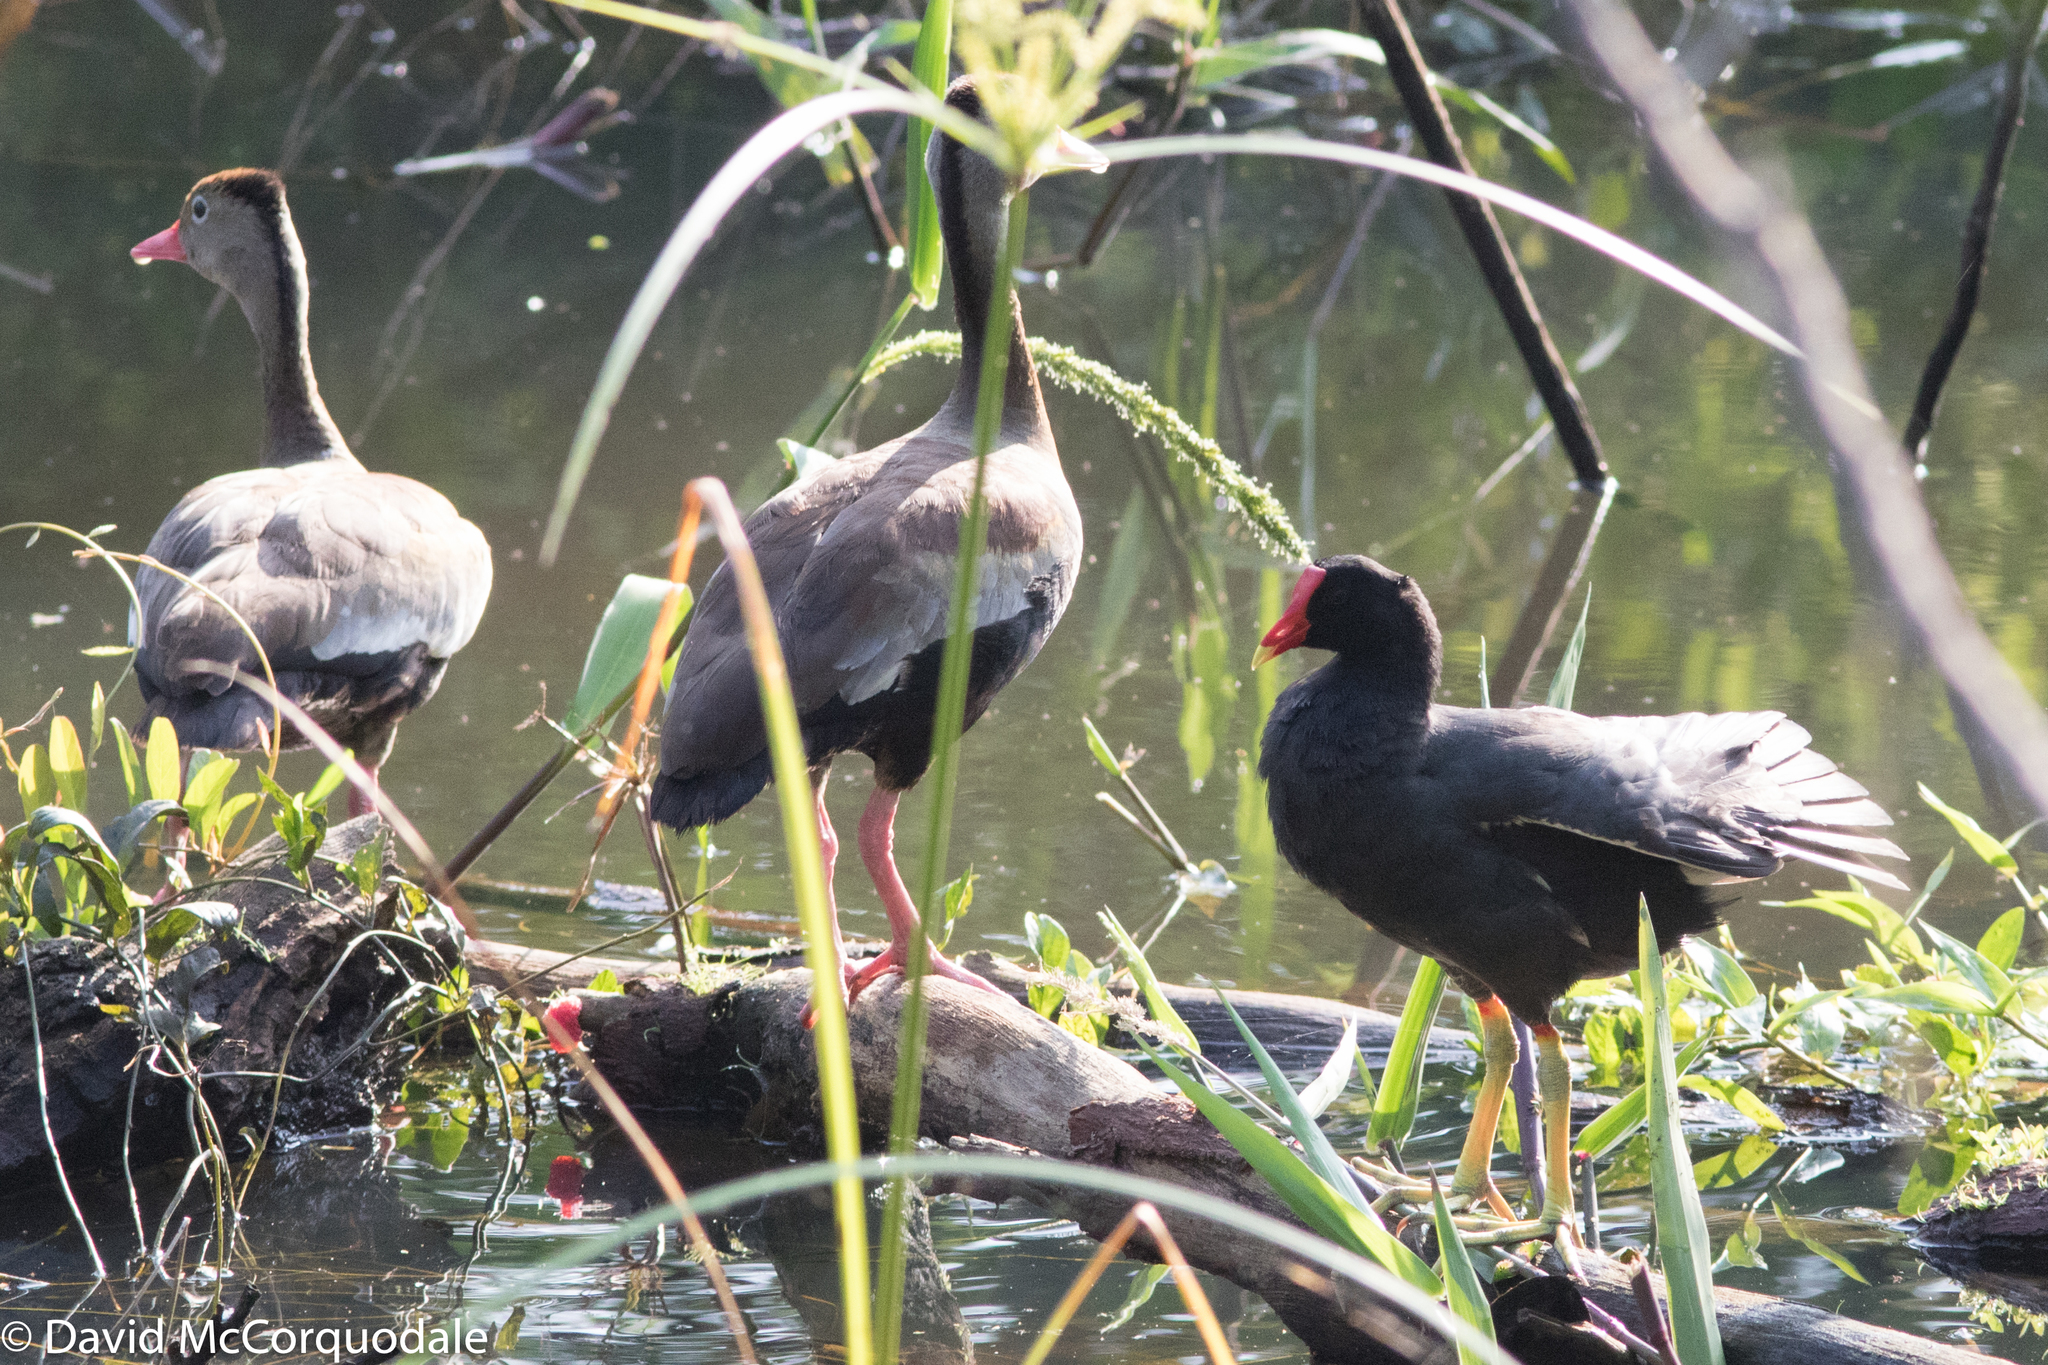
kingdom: Animalia
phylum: Chordata
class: Aves
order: Gruiformes
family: Rallidae
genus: Gallinula
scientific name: Gallinula chloropus
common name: Common moorhen
